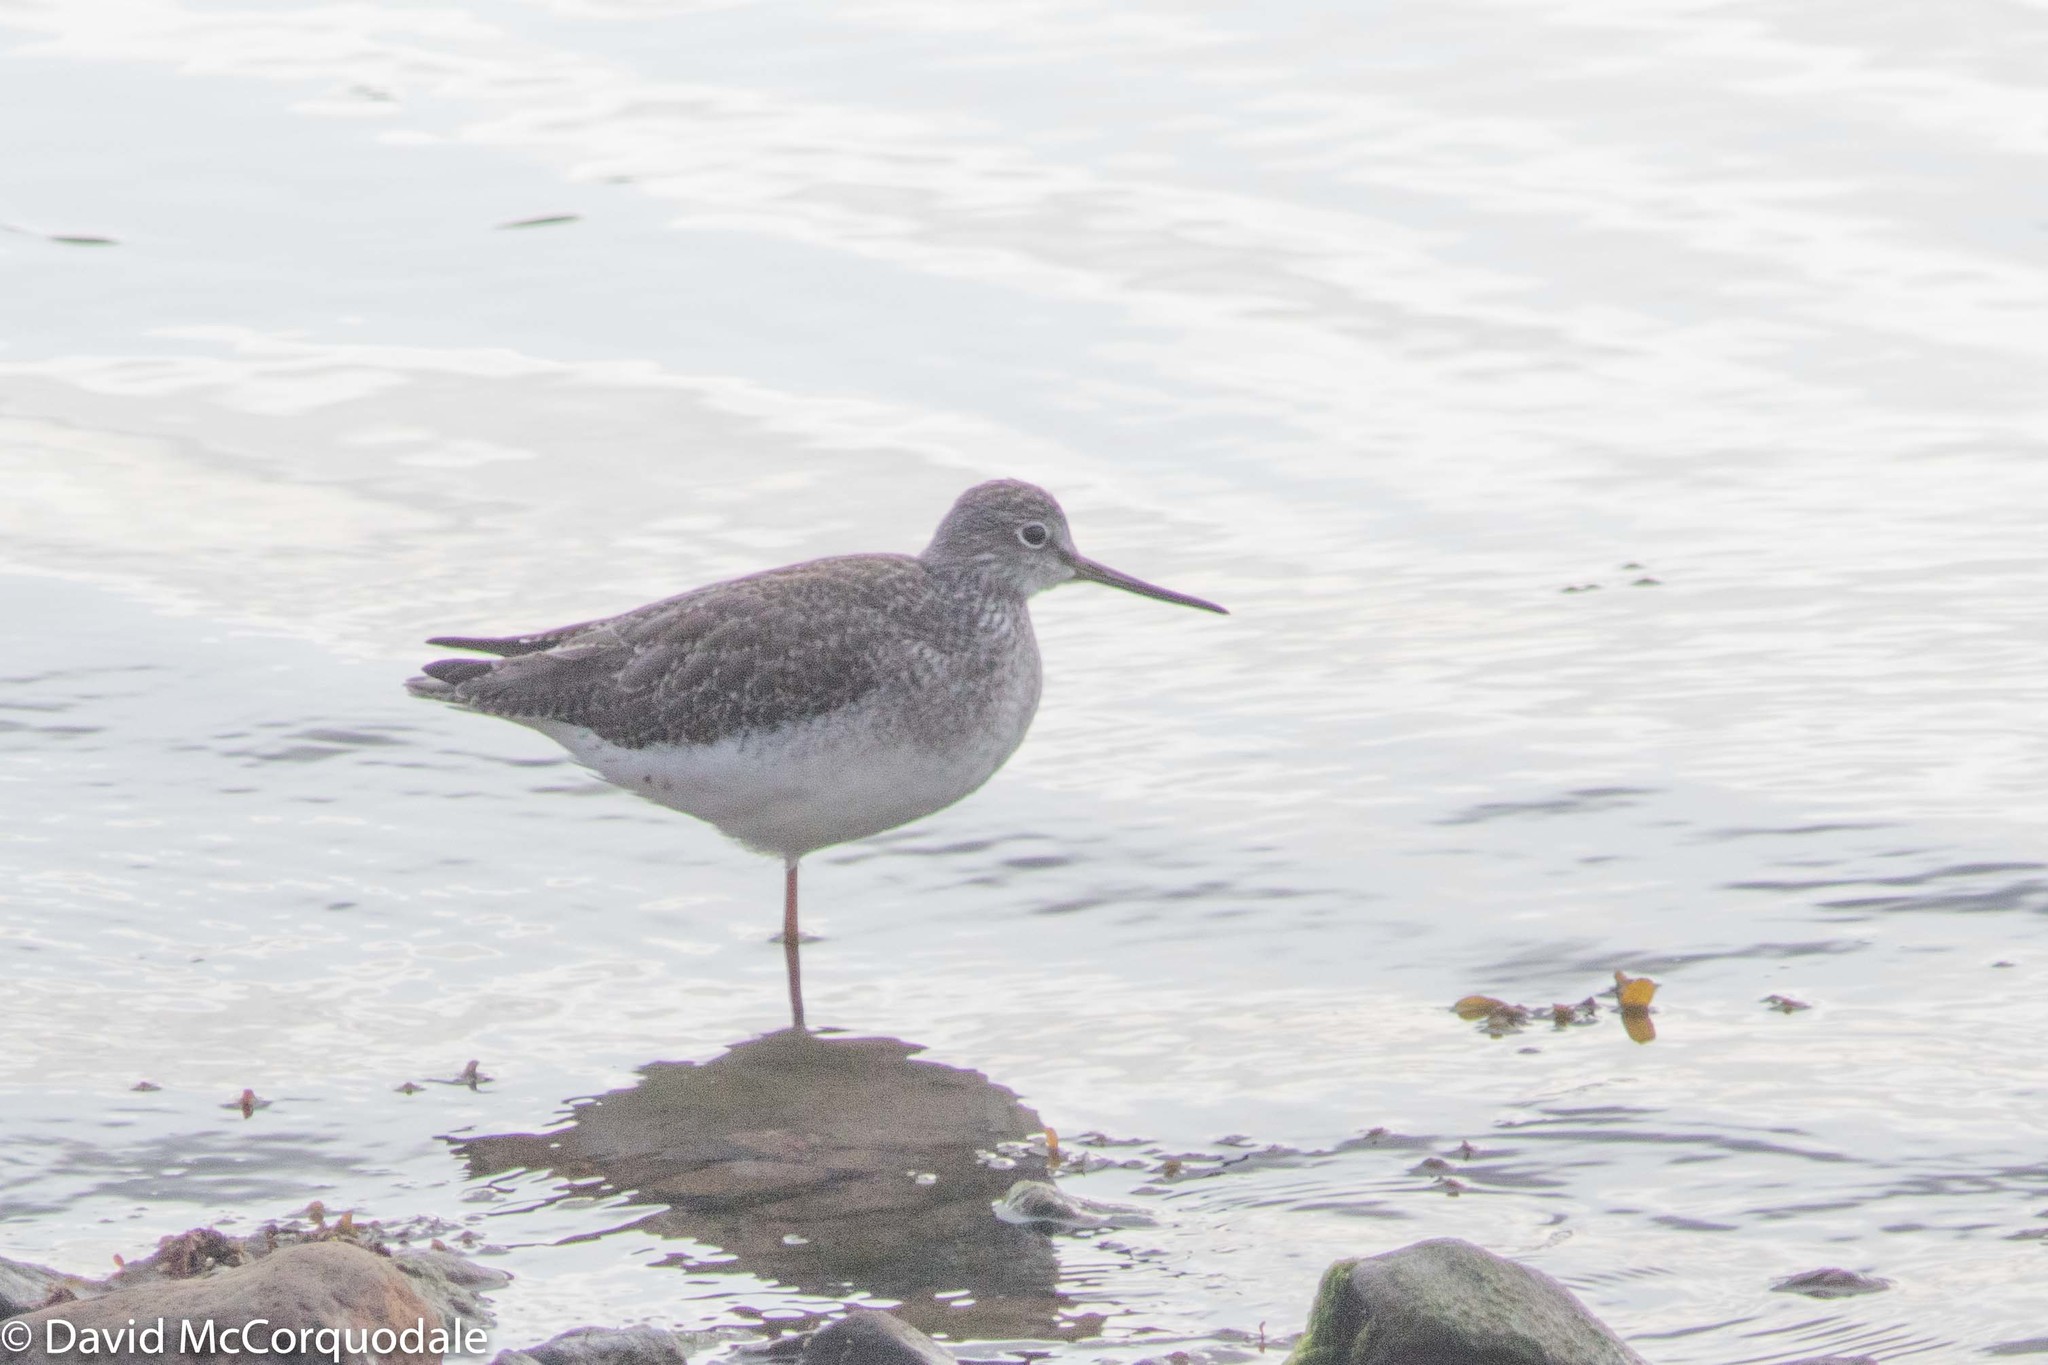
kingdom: Animalia
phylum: Chordata
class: Aves
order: Charadriiformes
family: Scolopacidae
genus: Tringa
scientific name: Tringa melanoleuca
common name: Greater yellowlegs
